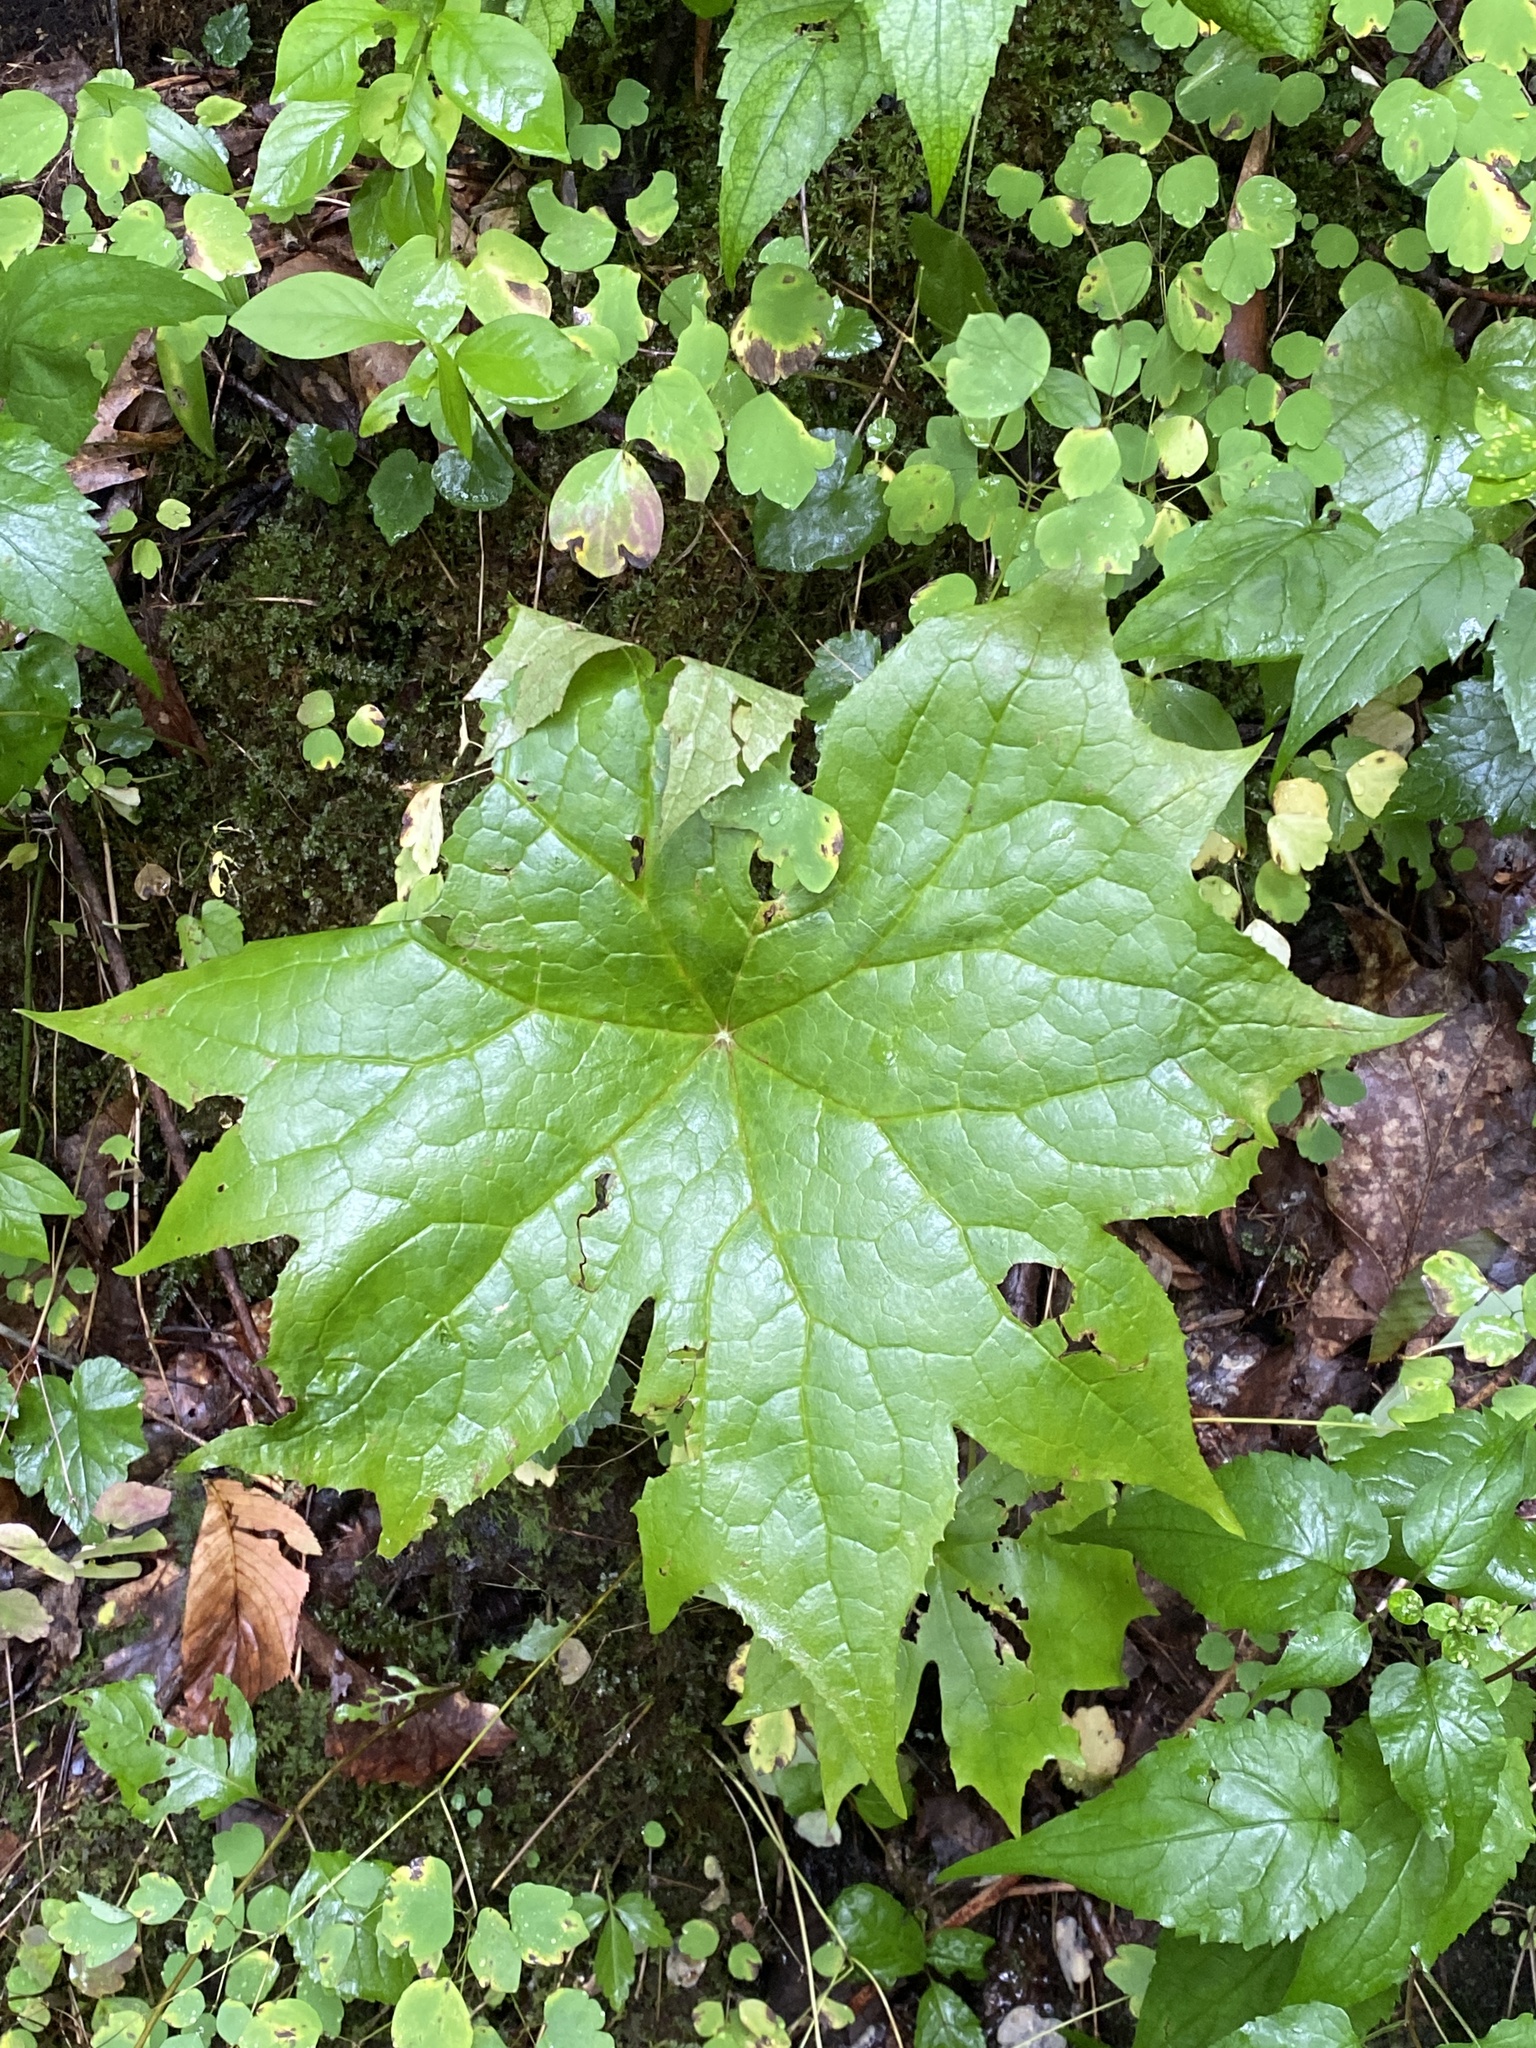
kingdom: Plantae
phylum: Tracheophyta
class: Magnoliopsida
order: Ranunculales
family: Berberidaceae
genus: Diphylleia
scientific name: Diphylleia cymosa
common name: Umbrella-leaf
